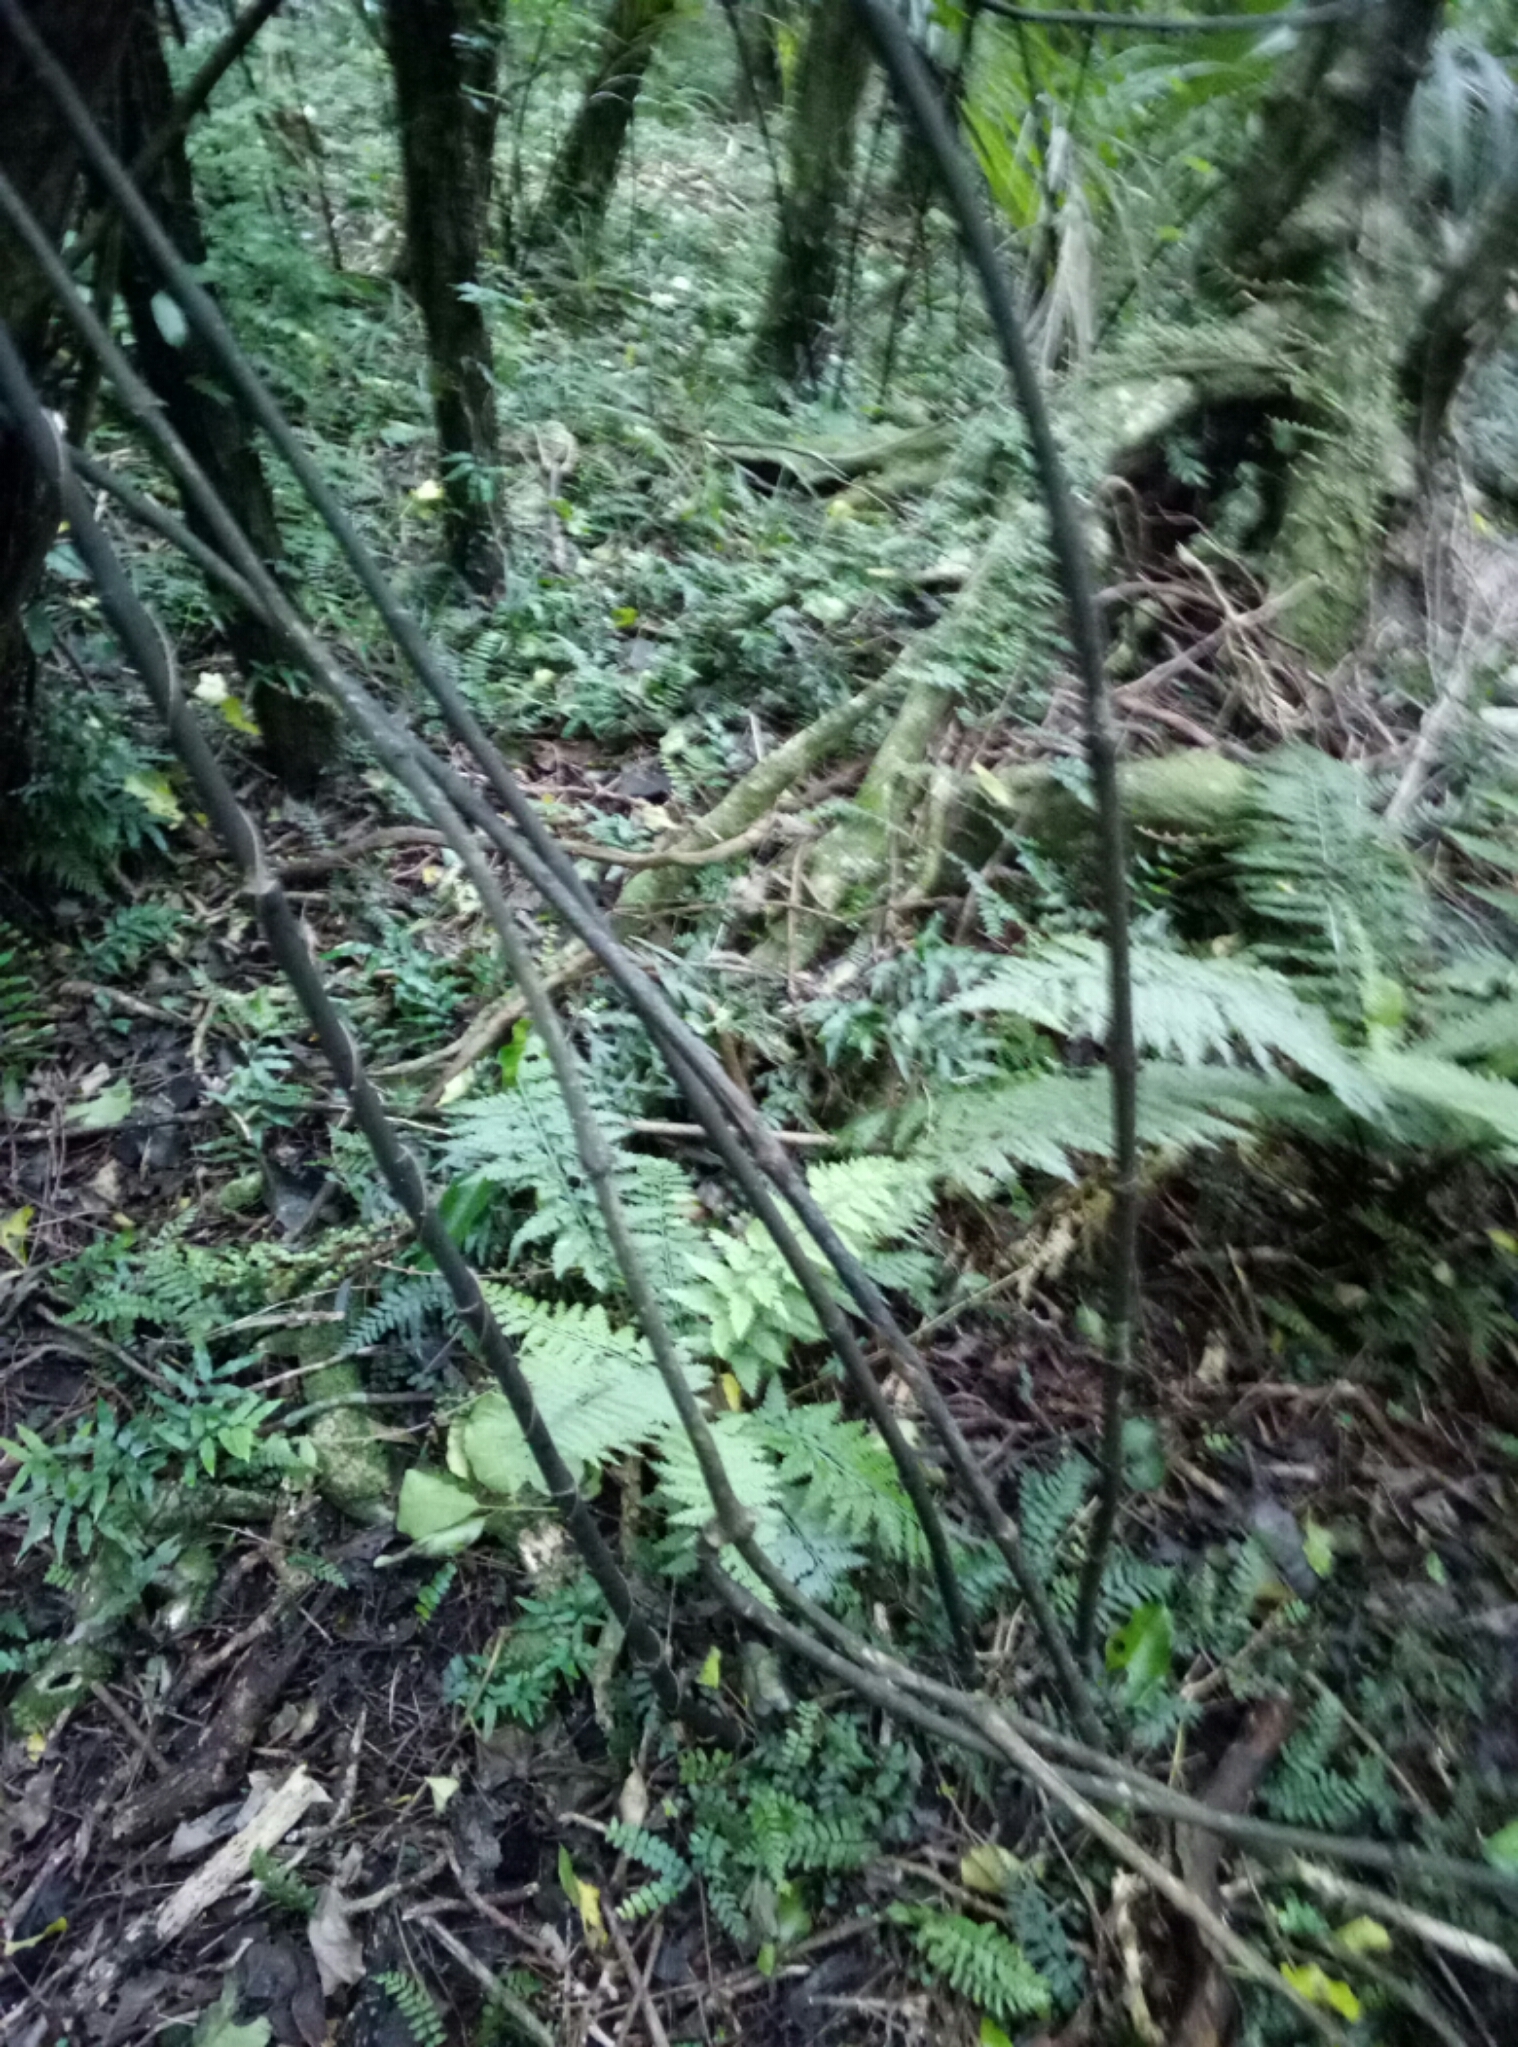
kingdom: Plantae
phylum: Tracheophyta
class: Liliopsida
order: Liliales
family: Ripogonaceae
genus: Ripogonum
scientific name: Ripogonum scandens
